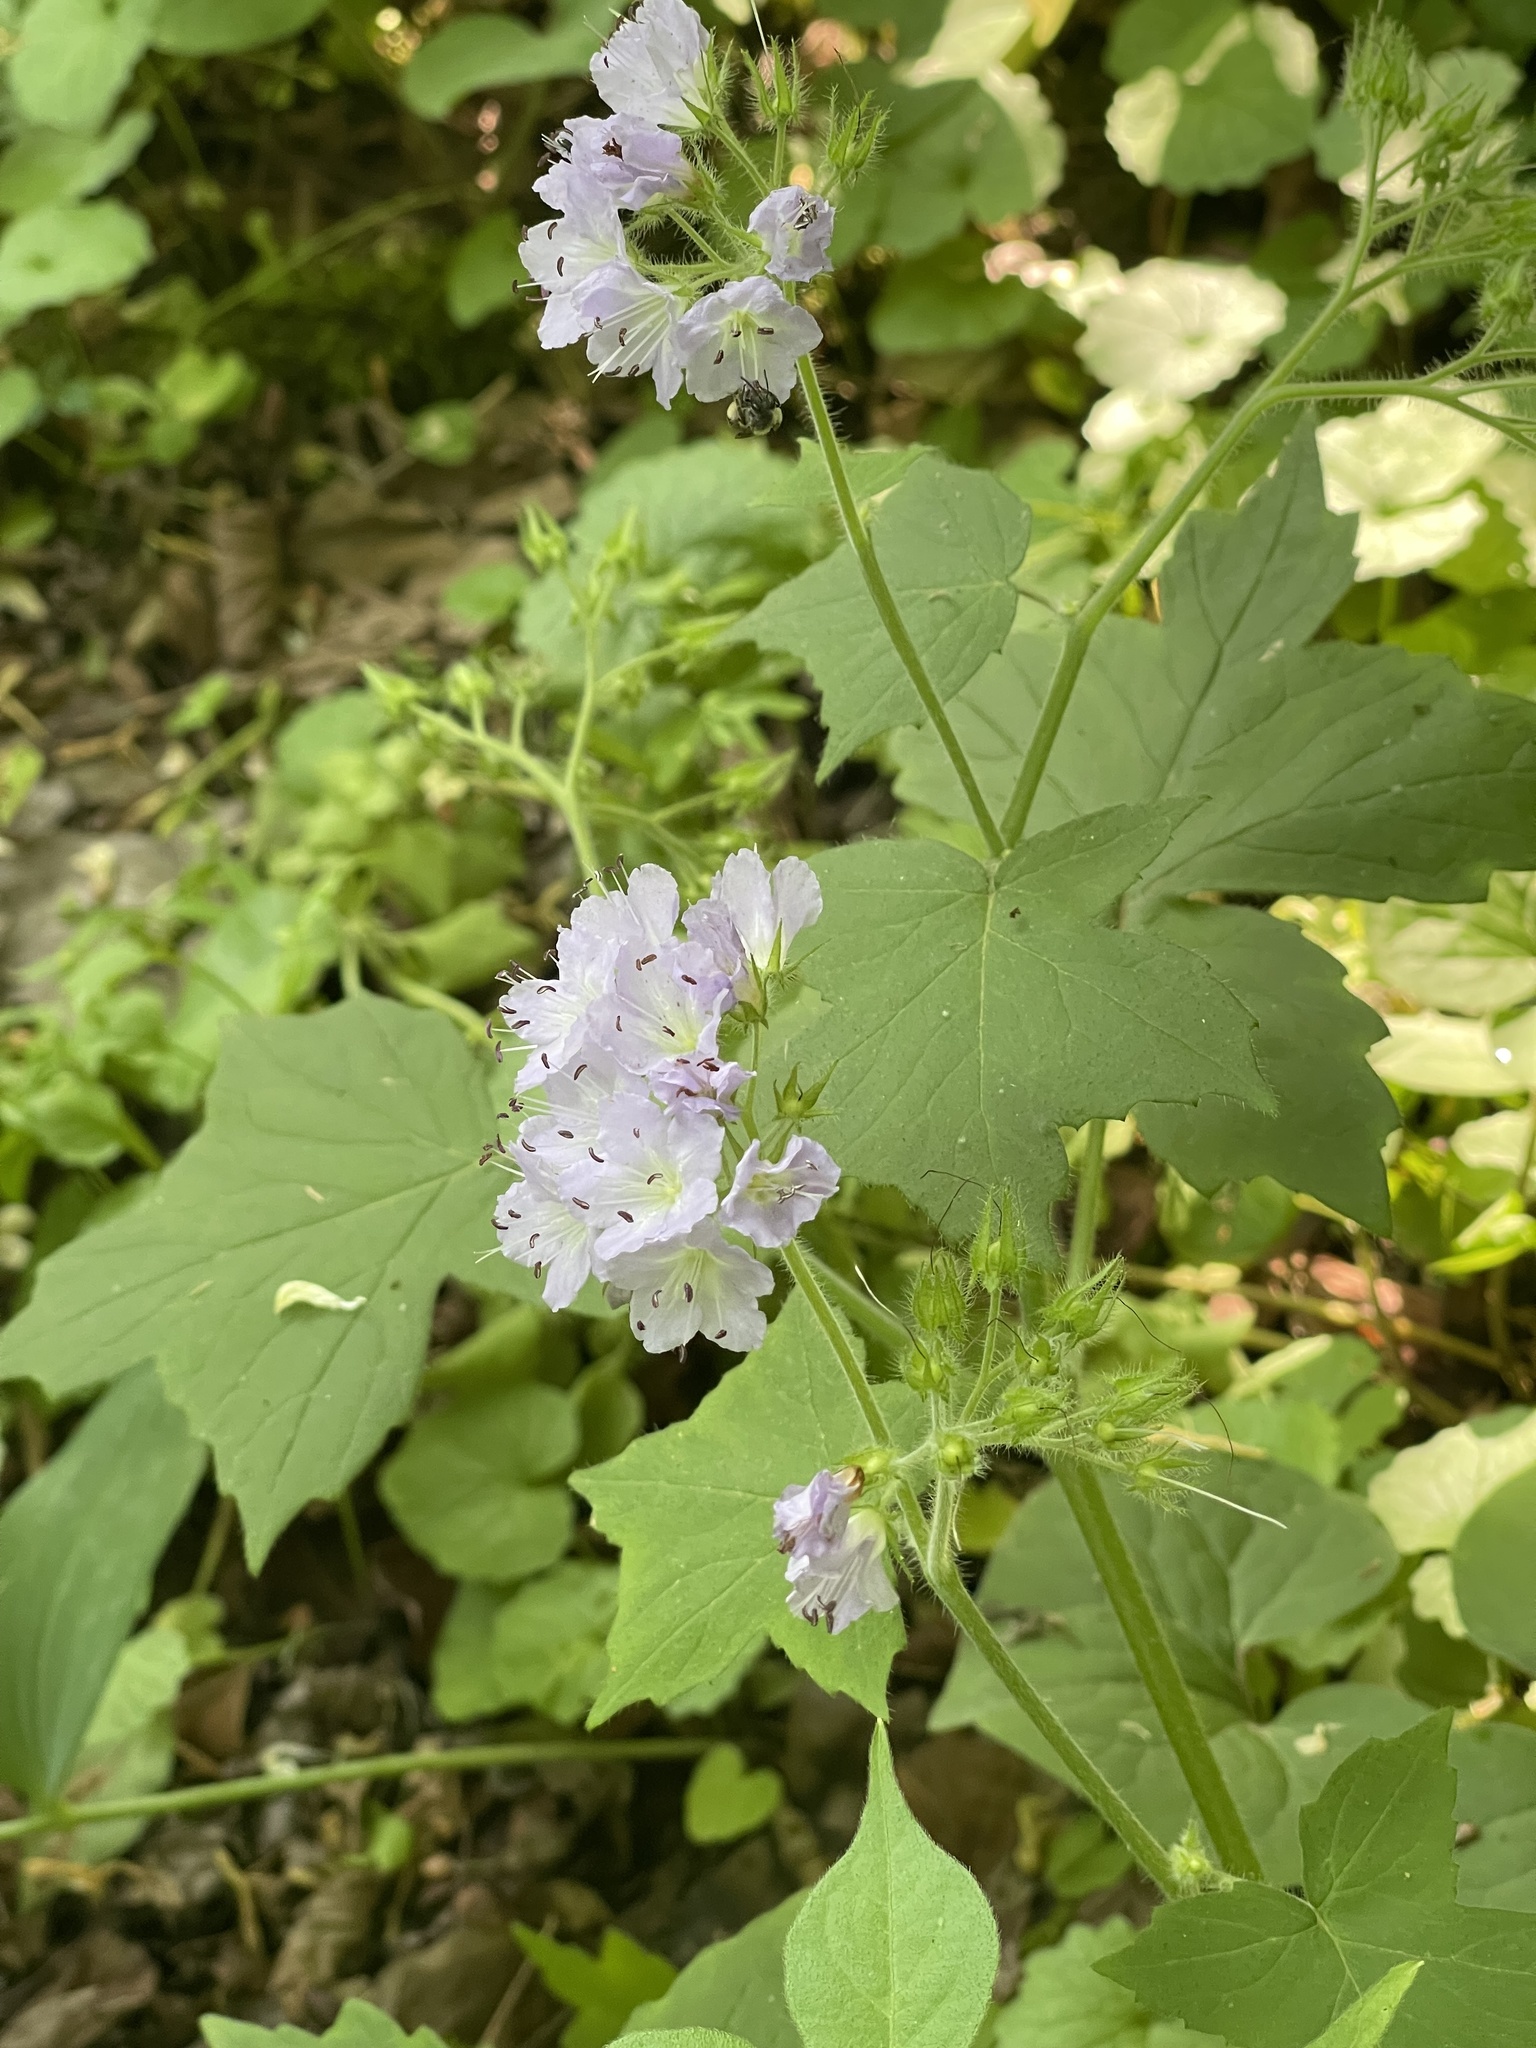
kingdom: Plantae
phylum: Tracheophyta
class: Magnoliopsida
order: Boraginales
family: Hydrophyllaceae
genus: Hydrophyllum
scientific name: Hydrophyllum appendiculatum
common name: Appendaged waterleaf
